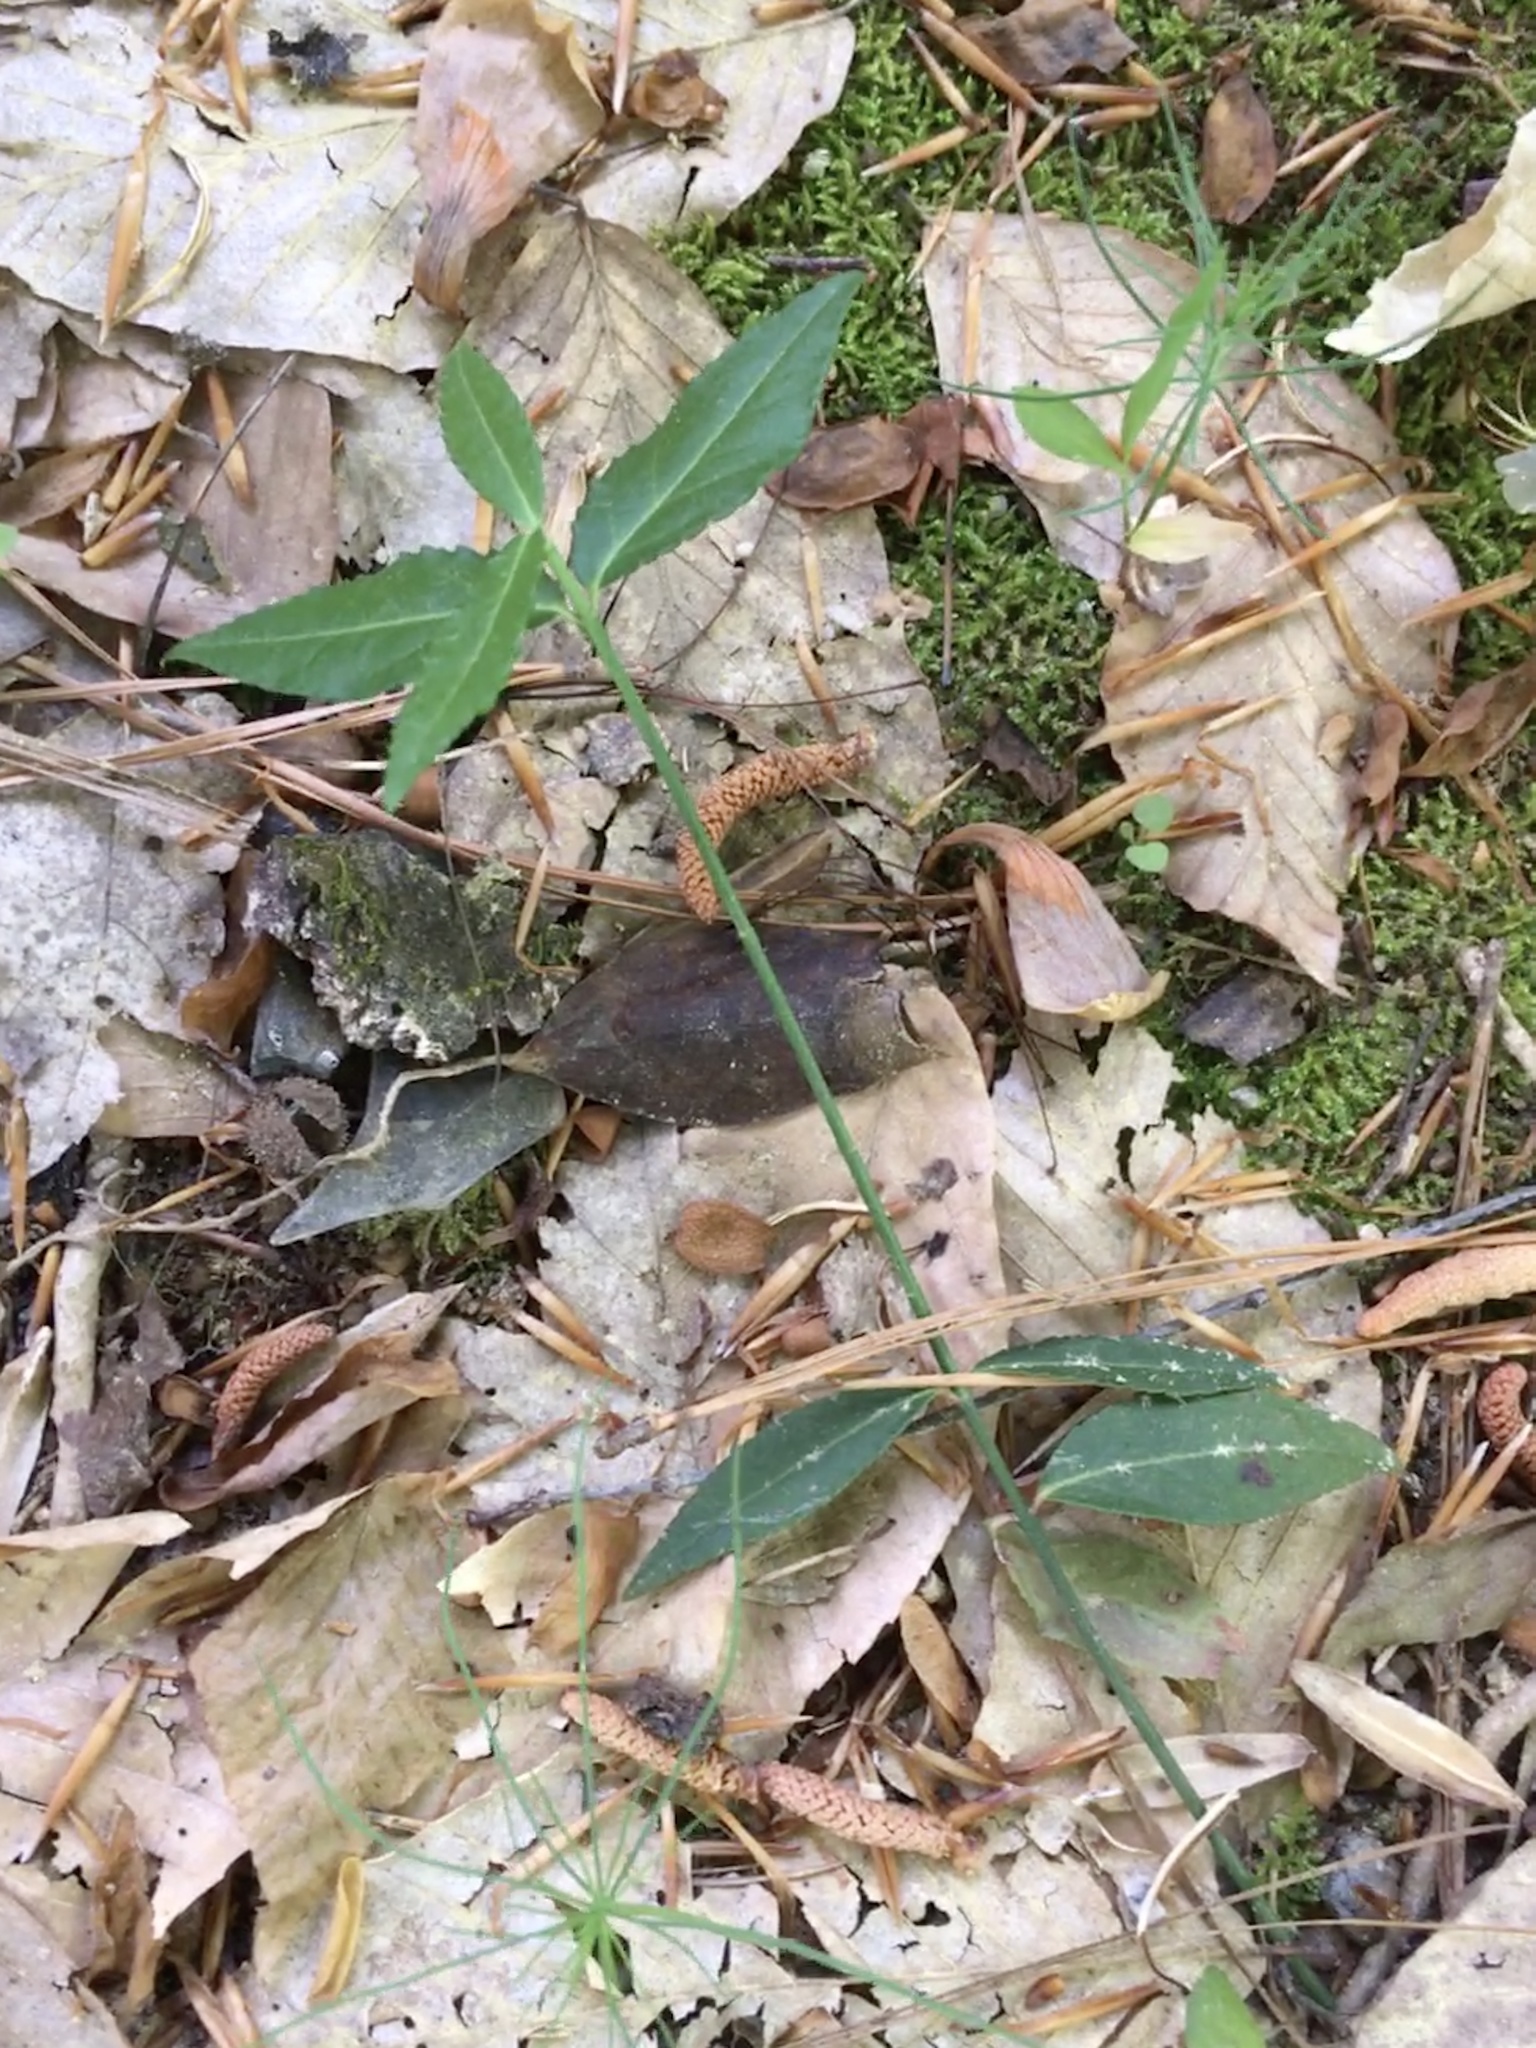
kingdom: Plantae
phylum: Tracheophyta
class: Magnoliopsida
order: Celastrales
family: Celastraceae
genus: Euonymus
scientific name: Euonymus americanus
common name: Bursting-heart
